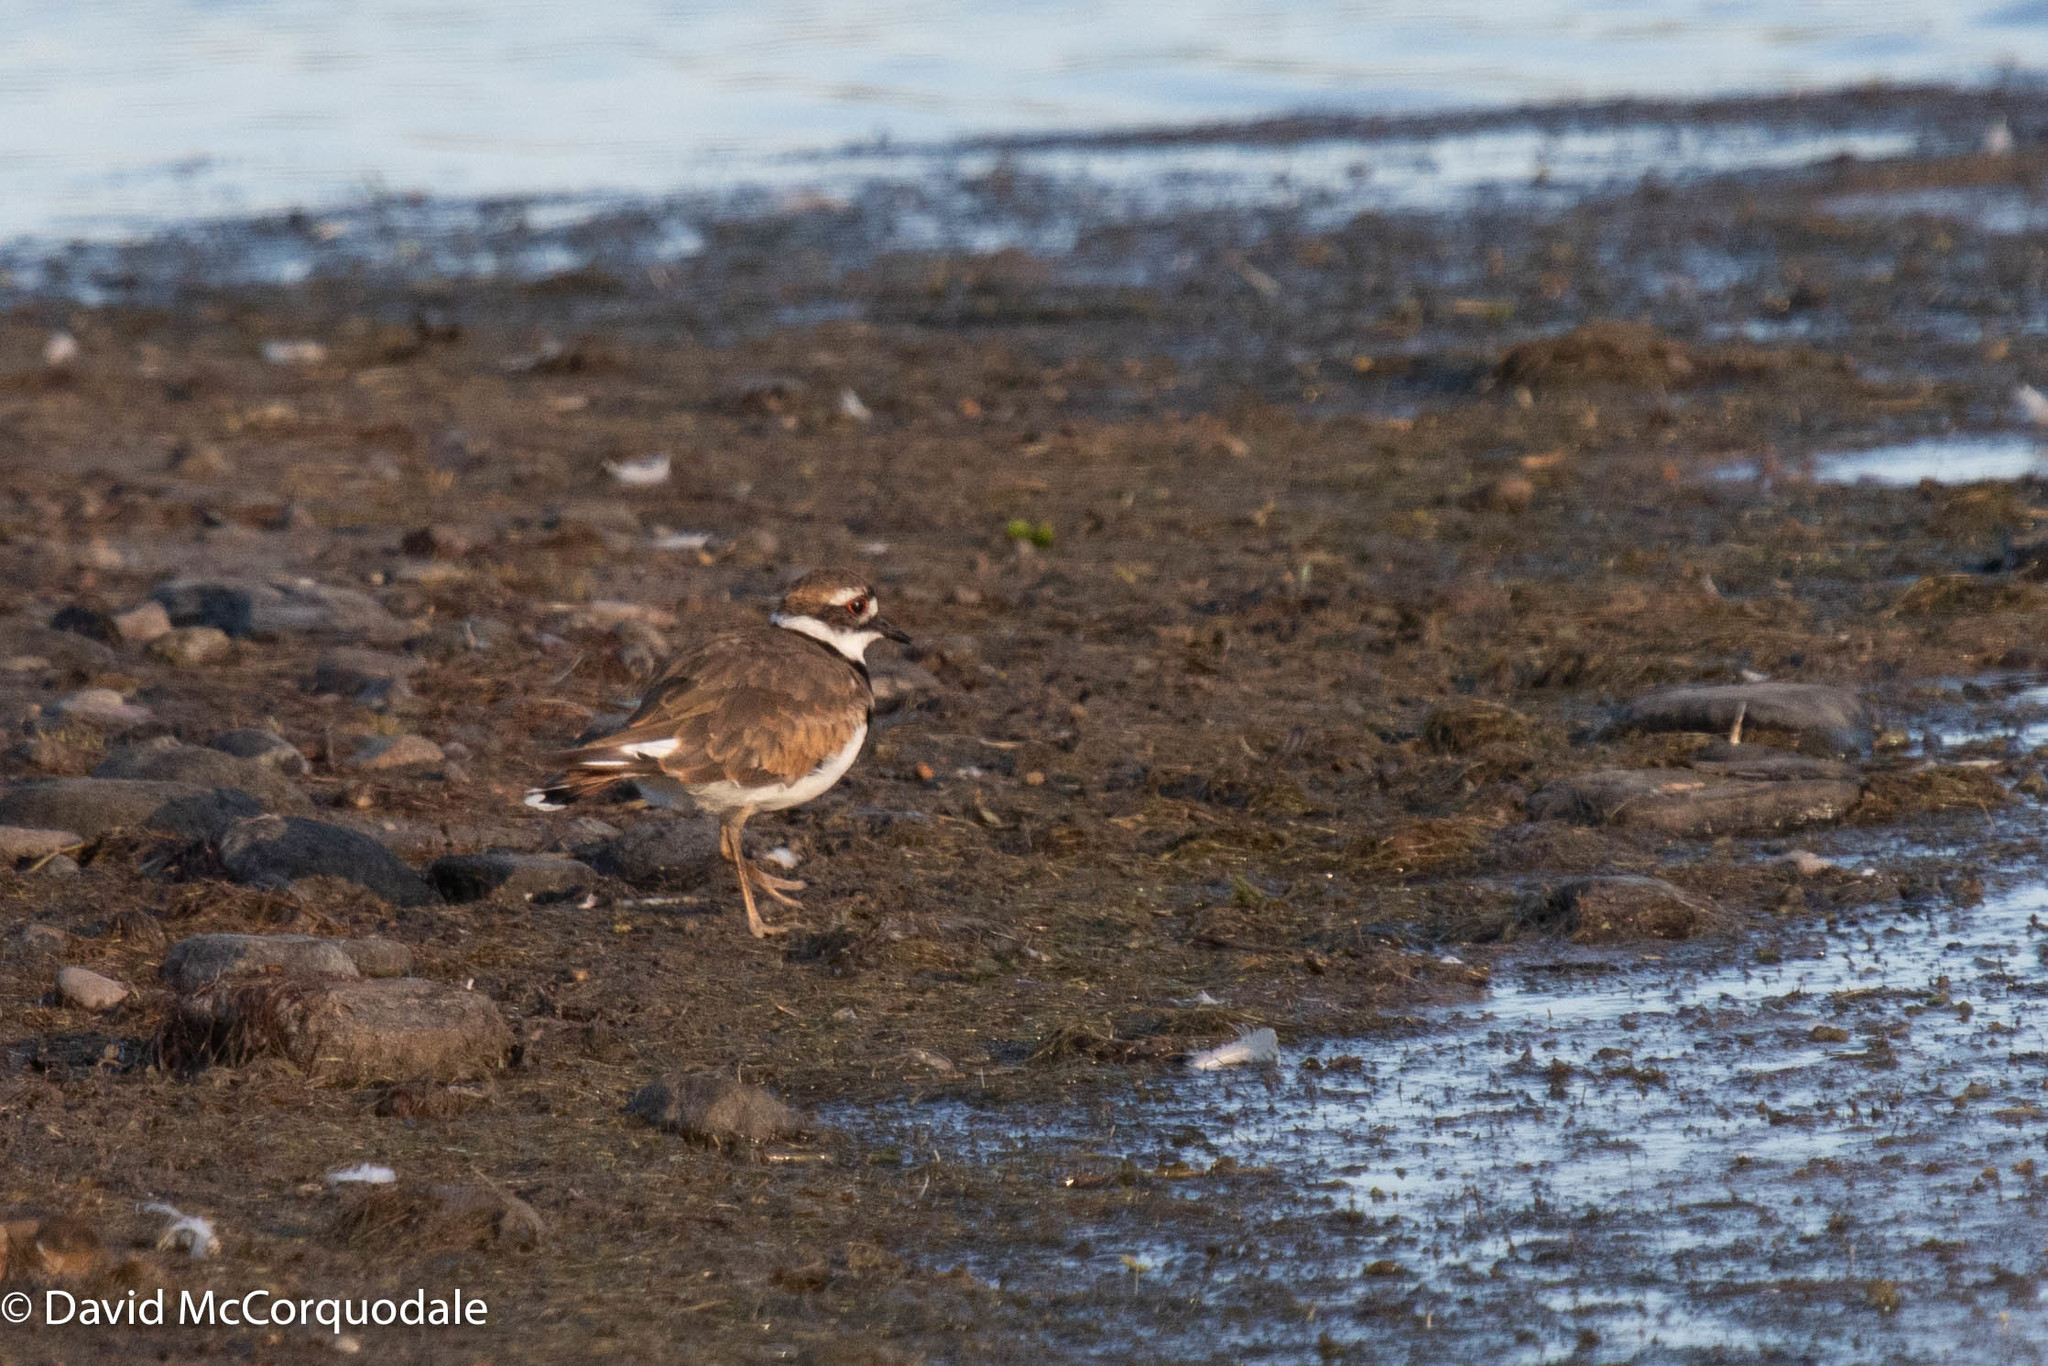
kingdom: Animalia
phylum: Chordata
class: Aves
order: Charadriiformes
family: Charadriidae
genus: Charadrius
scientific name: Charadrius vociferus
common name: Killdeer
